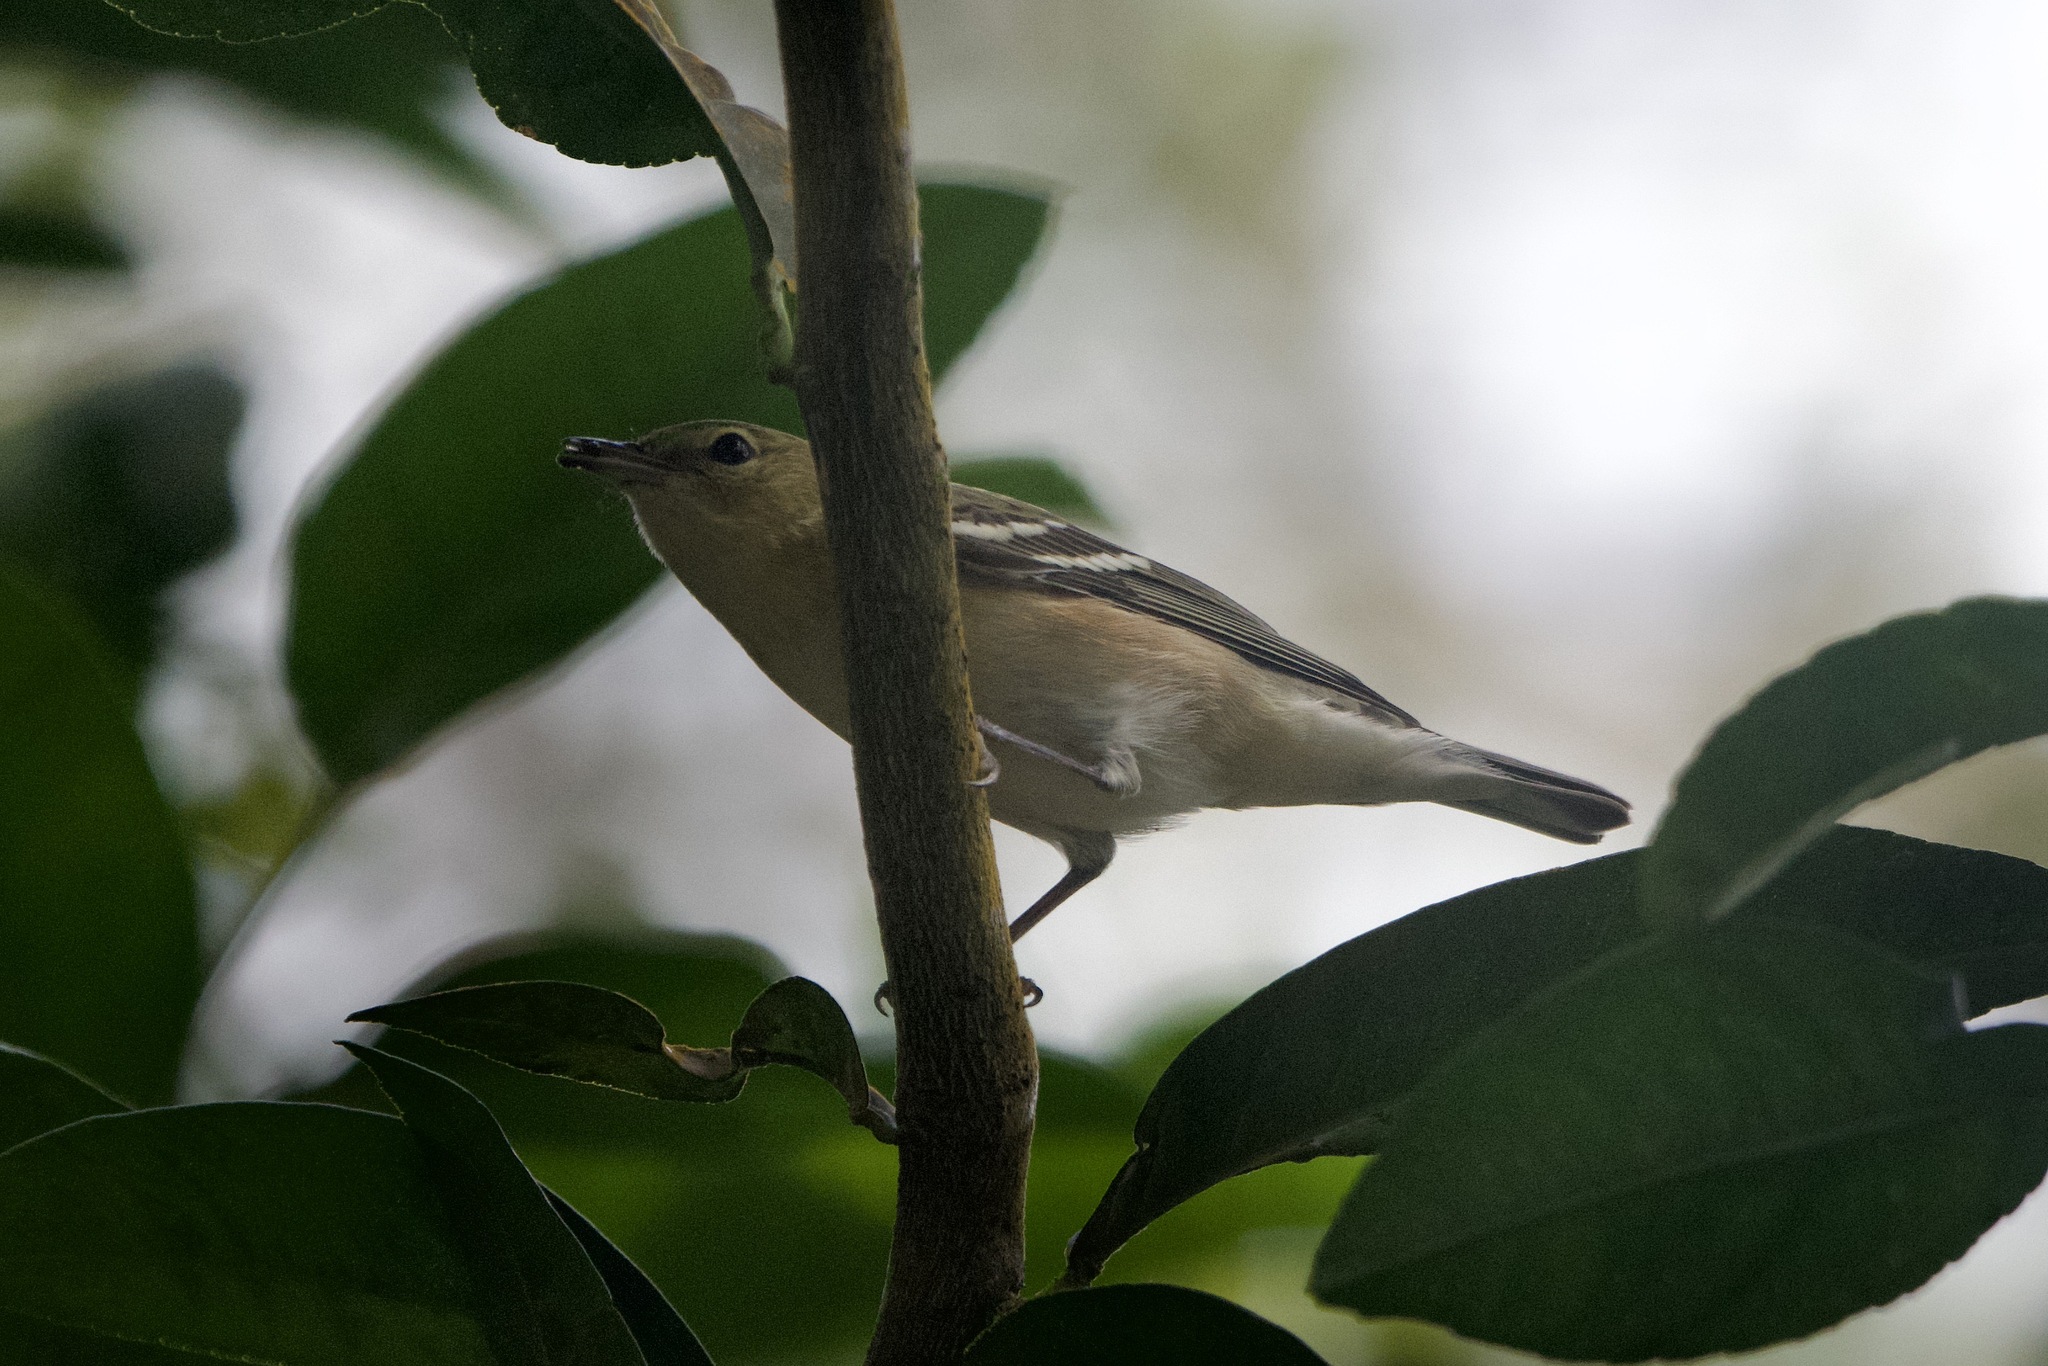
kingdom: Animalia
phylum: Chordata
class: Aves
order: Passeriformes
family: Parulidae
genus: Setophaga
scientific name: Setophaga castanea
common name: Bay-breasted warbler
